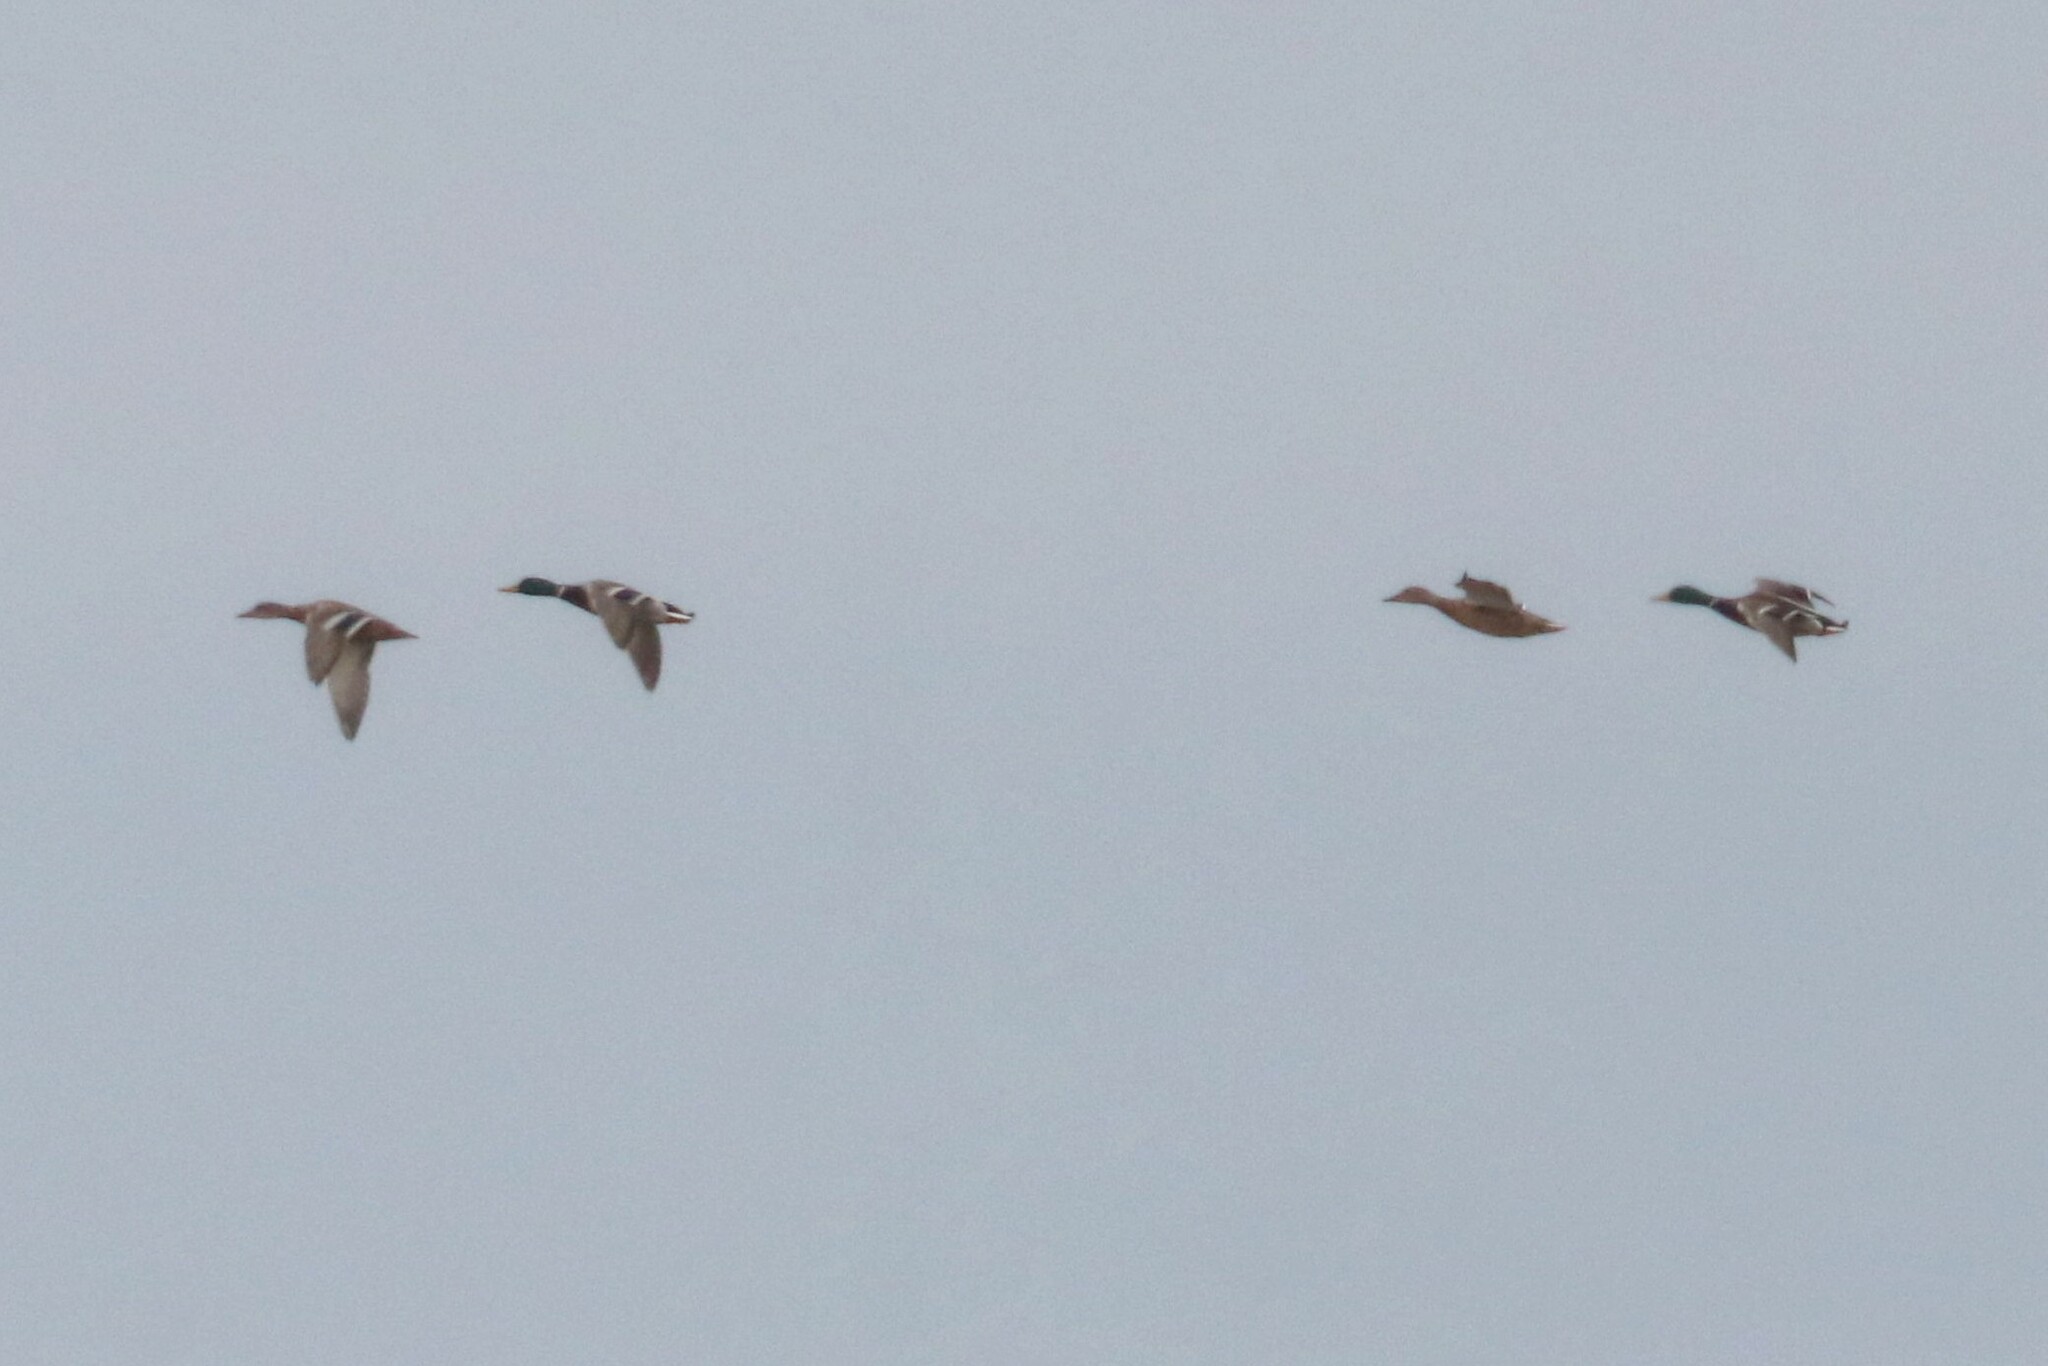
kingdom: Animalia
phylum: Chordata
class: Aves
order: Anseriformes
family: Anatidae
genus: Anas
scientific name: Anas platyrhynchos
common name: Mallard
